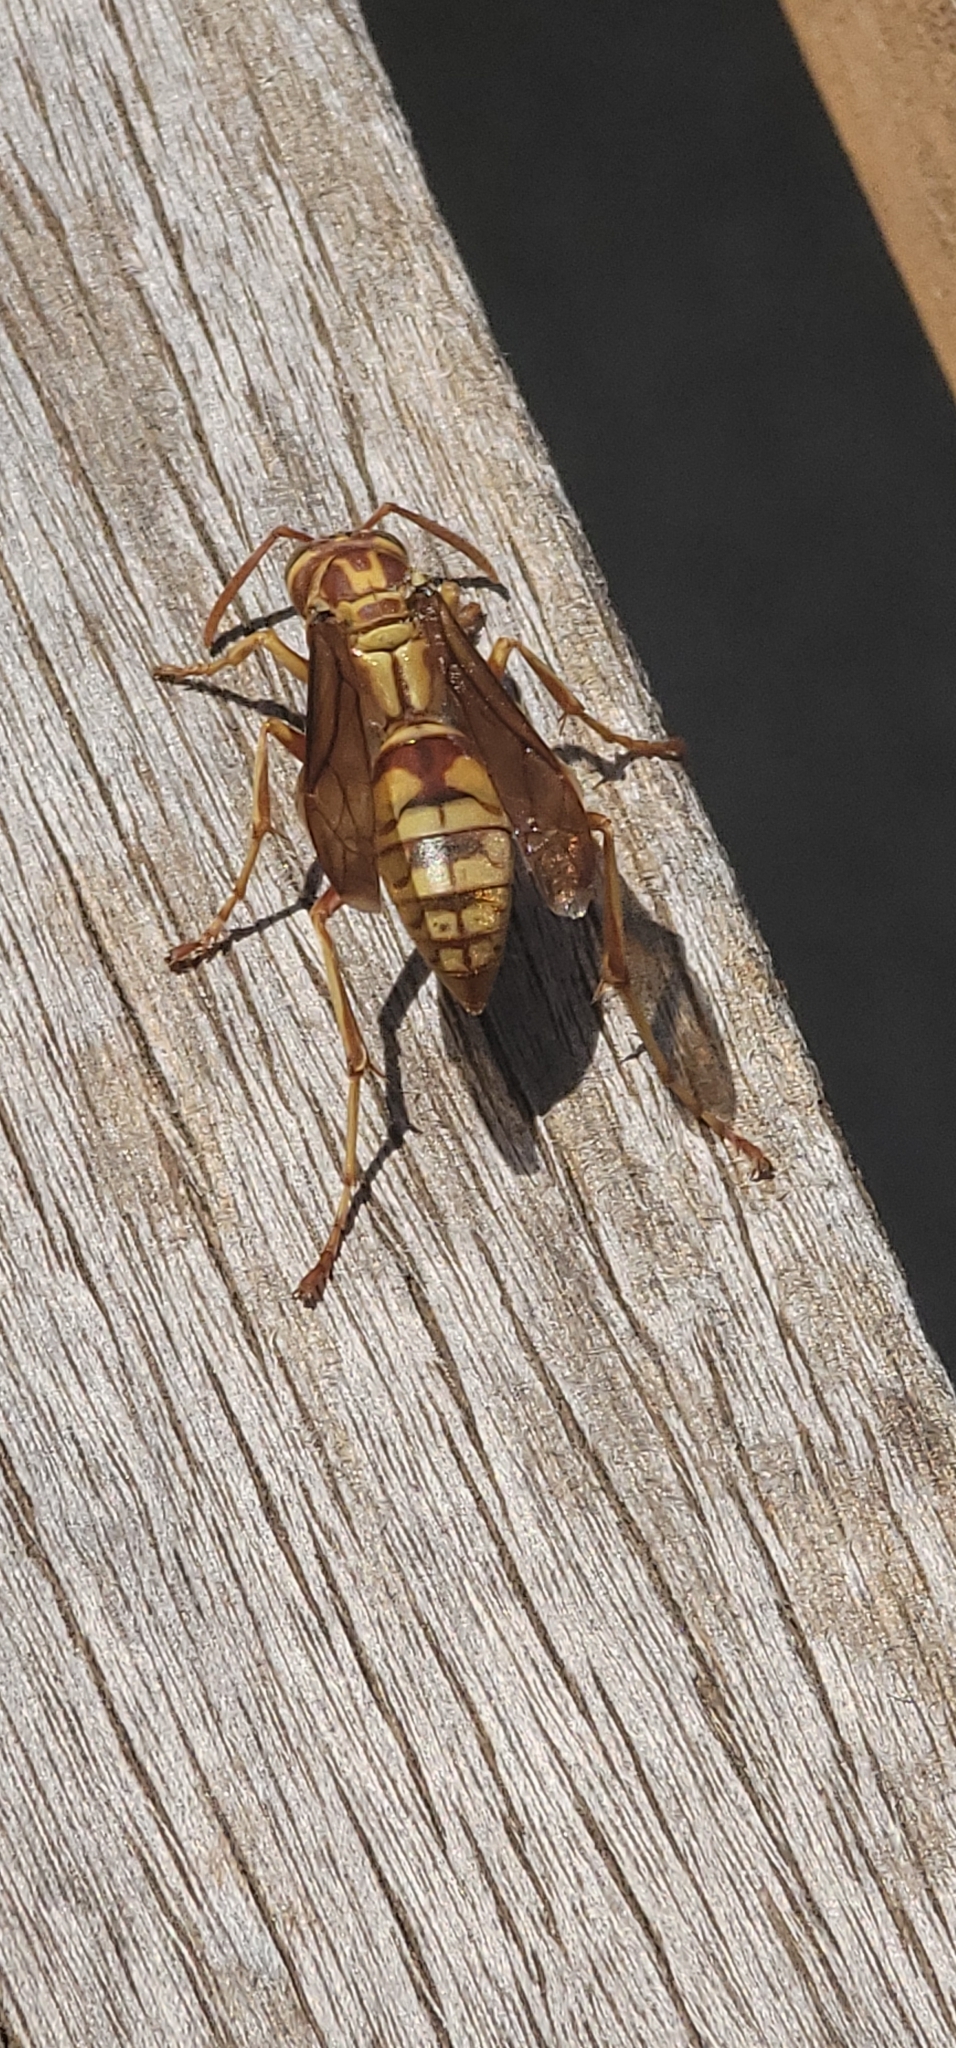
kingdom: Animalia
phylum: Arthropoda
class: Insecta
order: Hymenoptera
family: Eumenidae
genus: Polistes
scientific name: Polistes apachus
